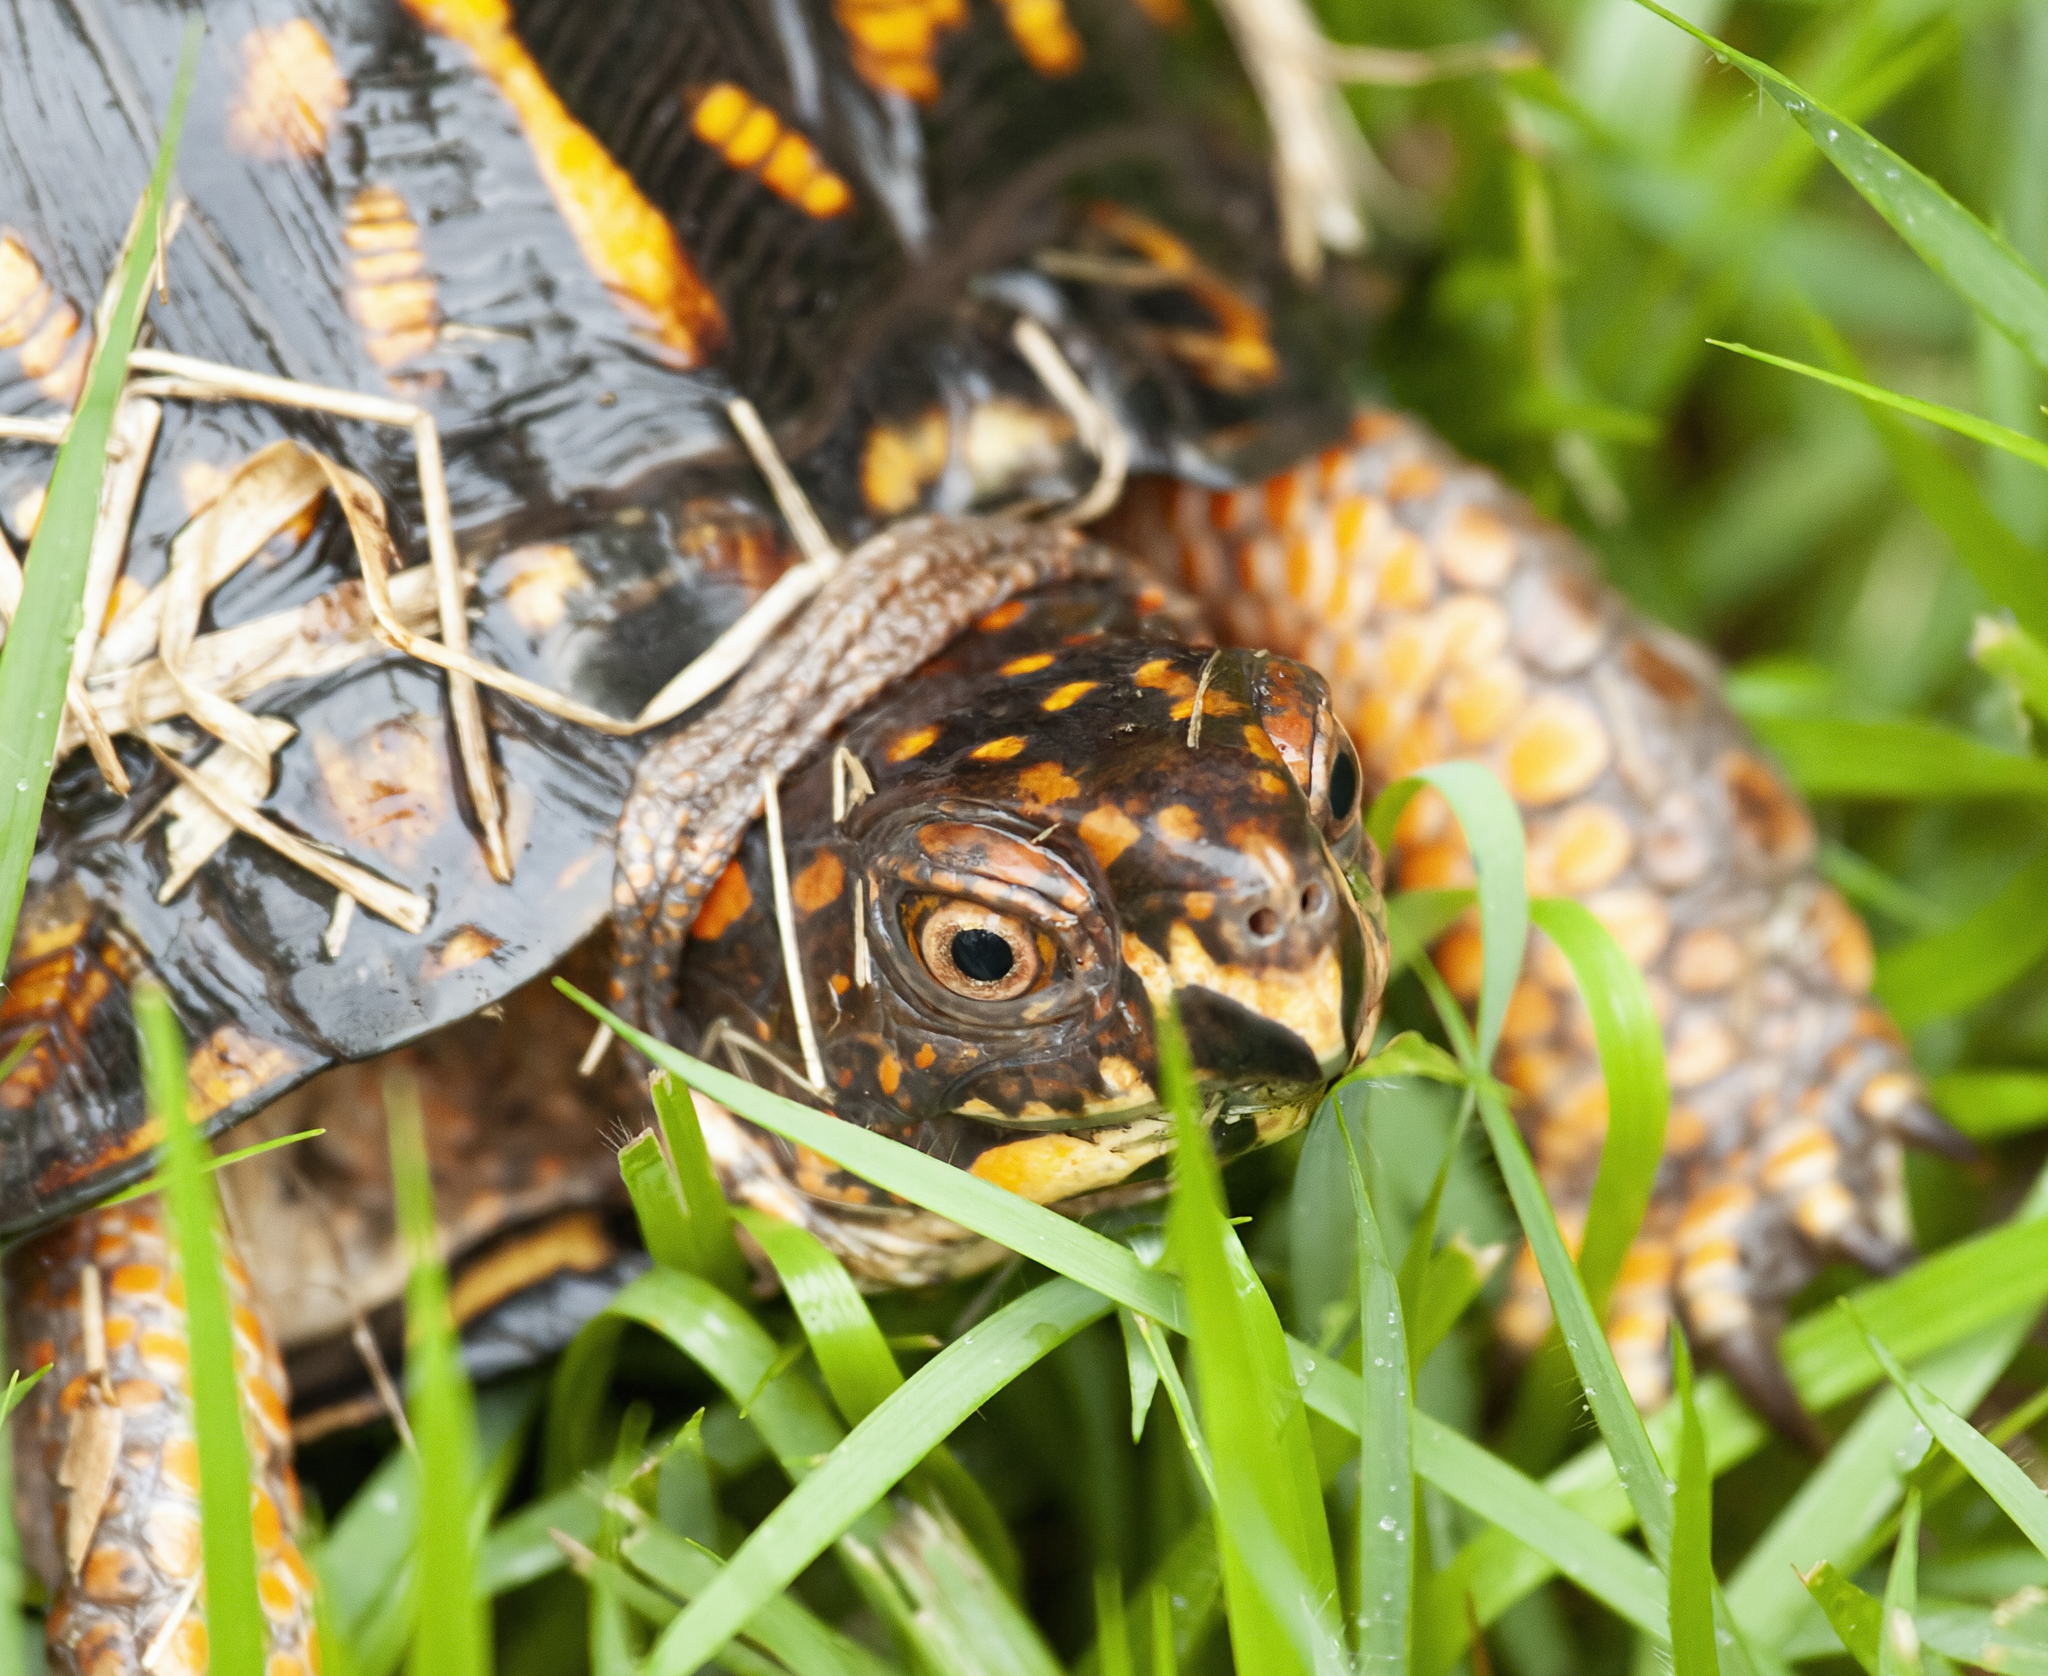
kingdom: Animalia
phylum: Chordata
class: Testudines
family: Emydidae
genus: Terrapene
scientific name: Terrapene carolina
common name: Common box turtle
